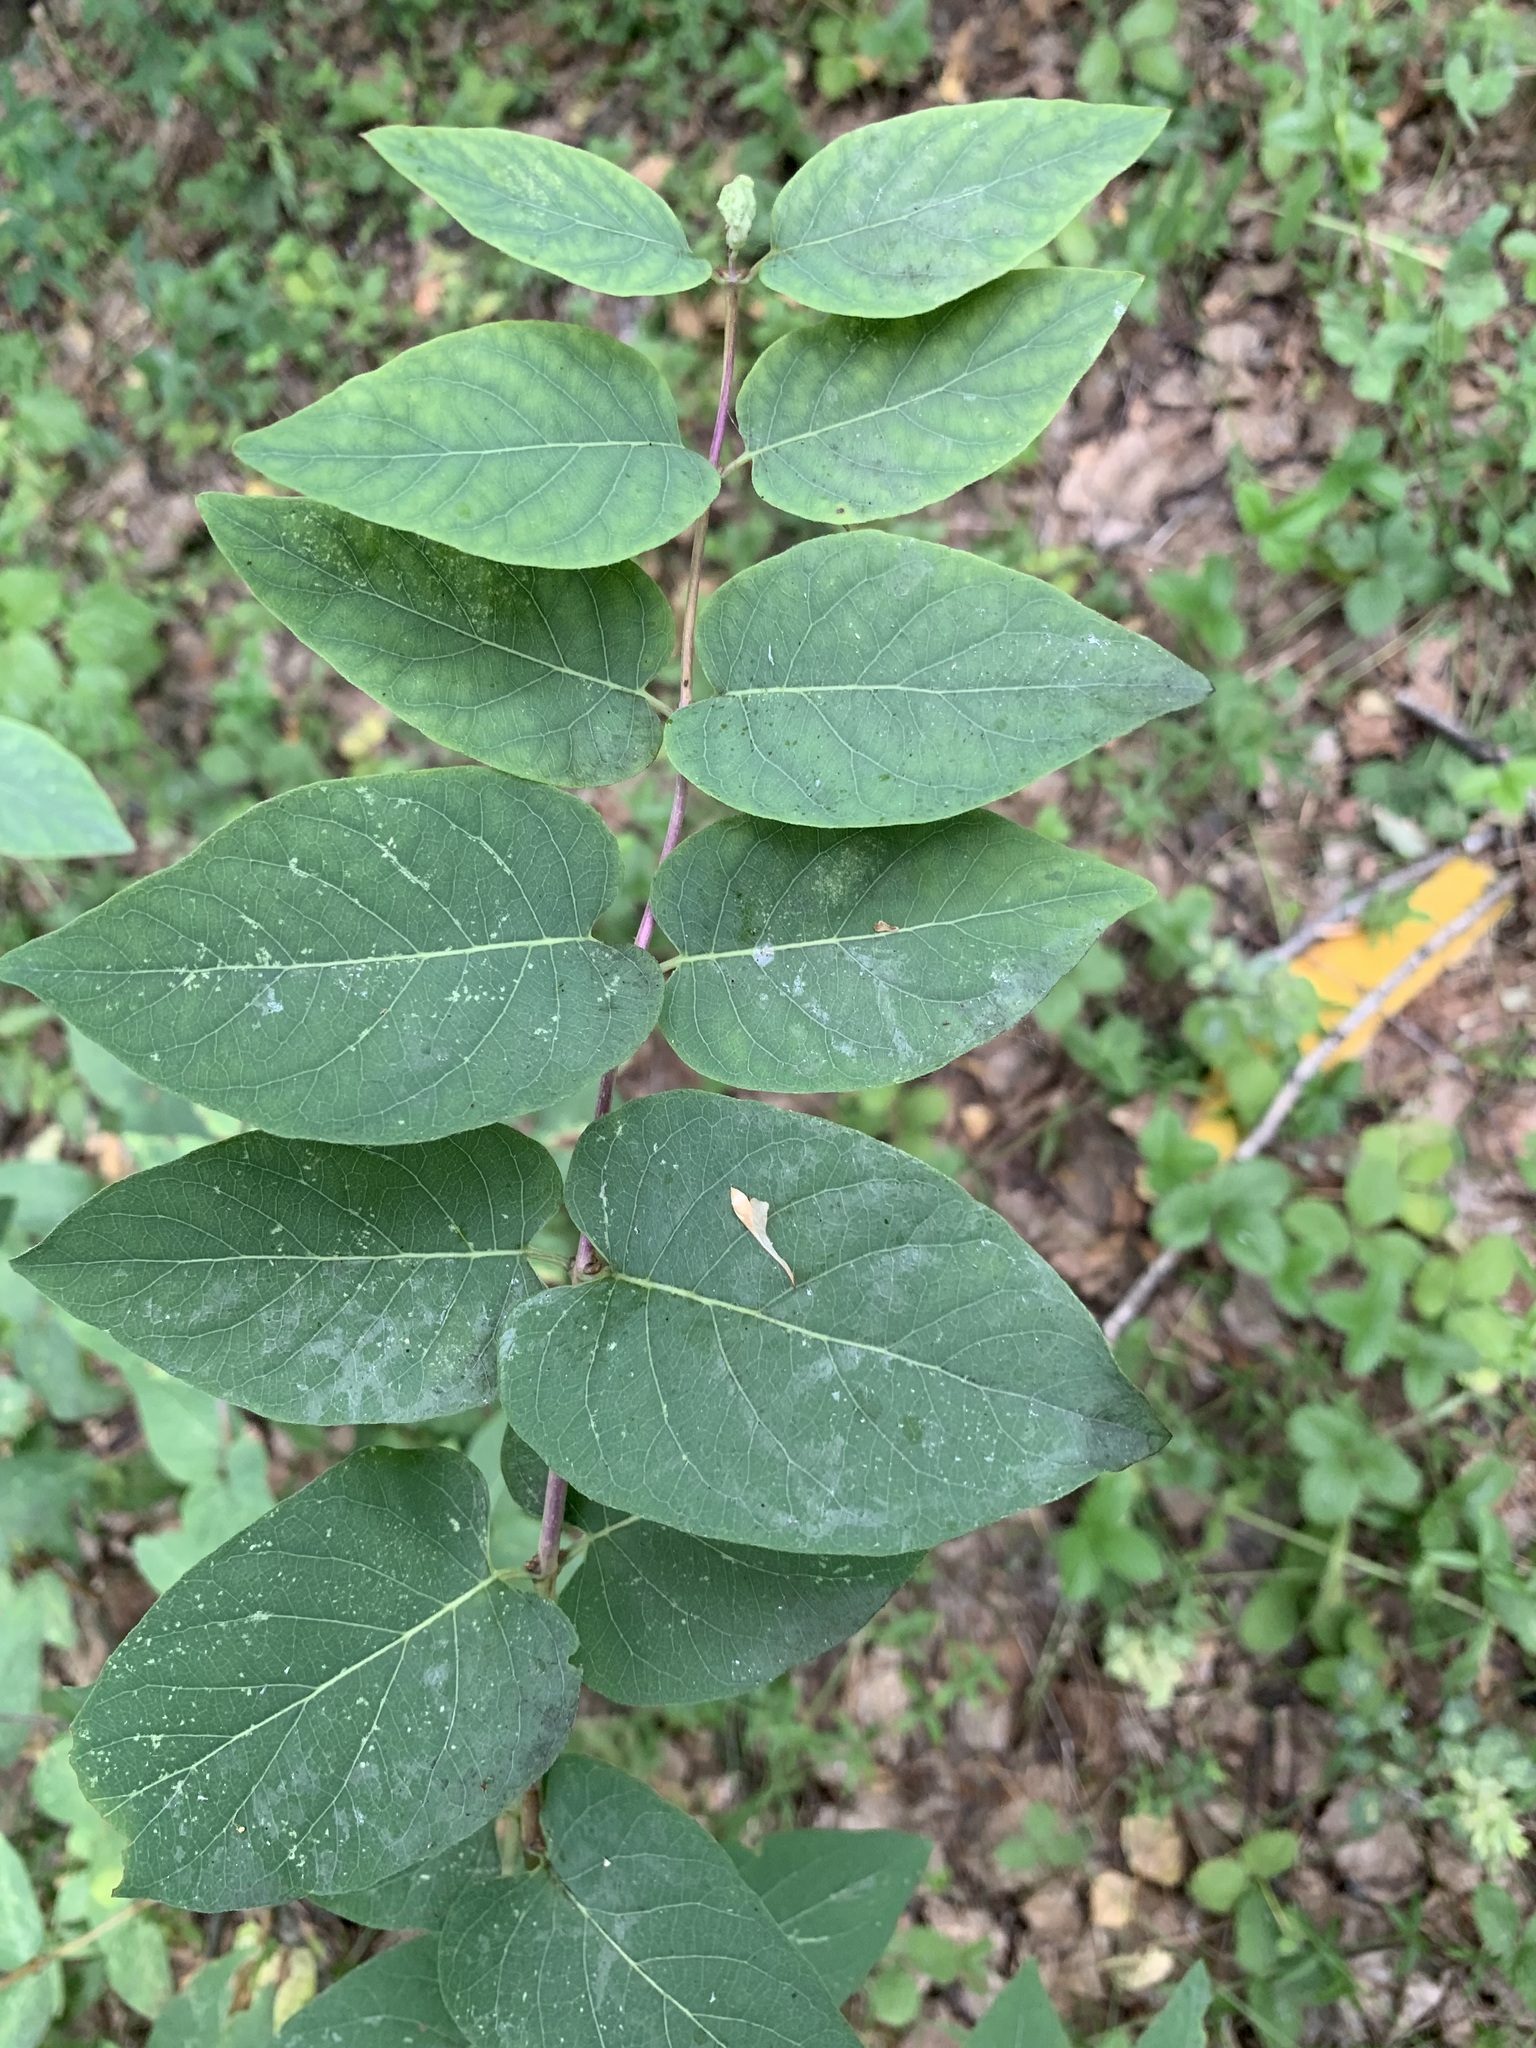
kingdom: Plantae
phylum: Tracheophyta
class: Magnoliopsida
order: Dipsacales
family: Caprifoliaceae
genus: Lonicera
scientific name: Lonicera tatarica
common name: Tatarian honeysuckle
